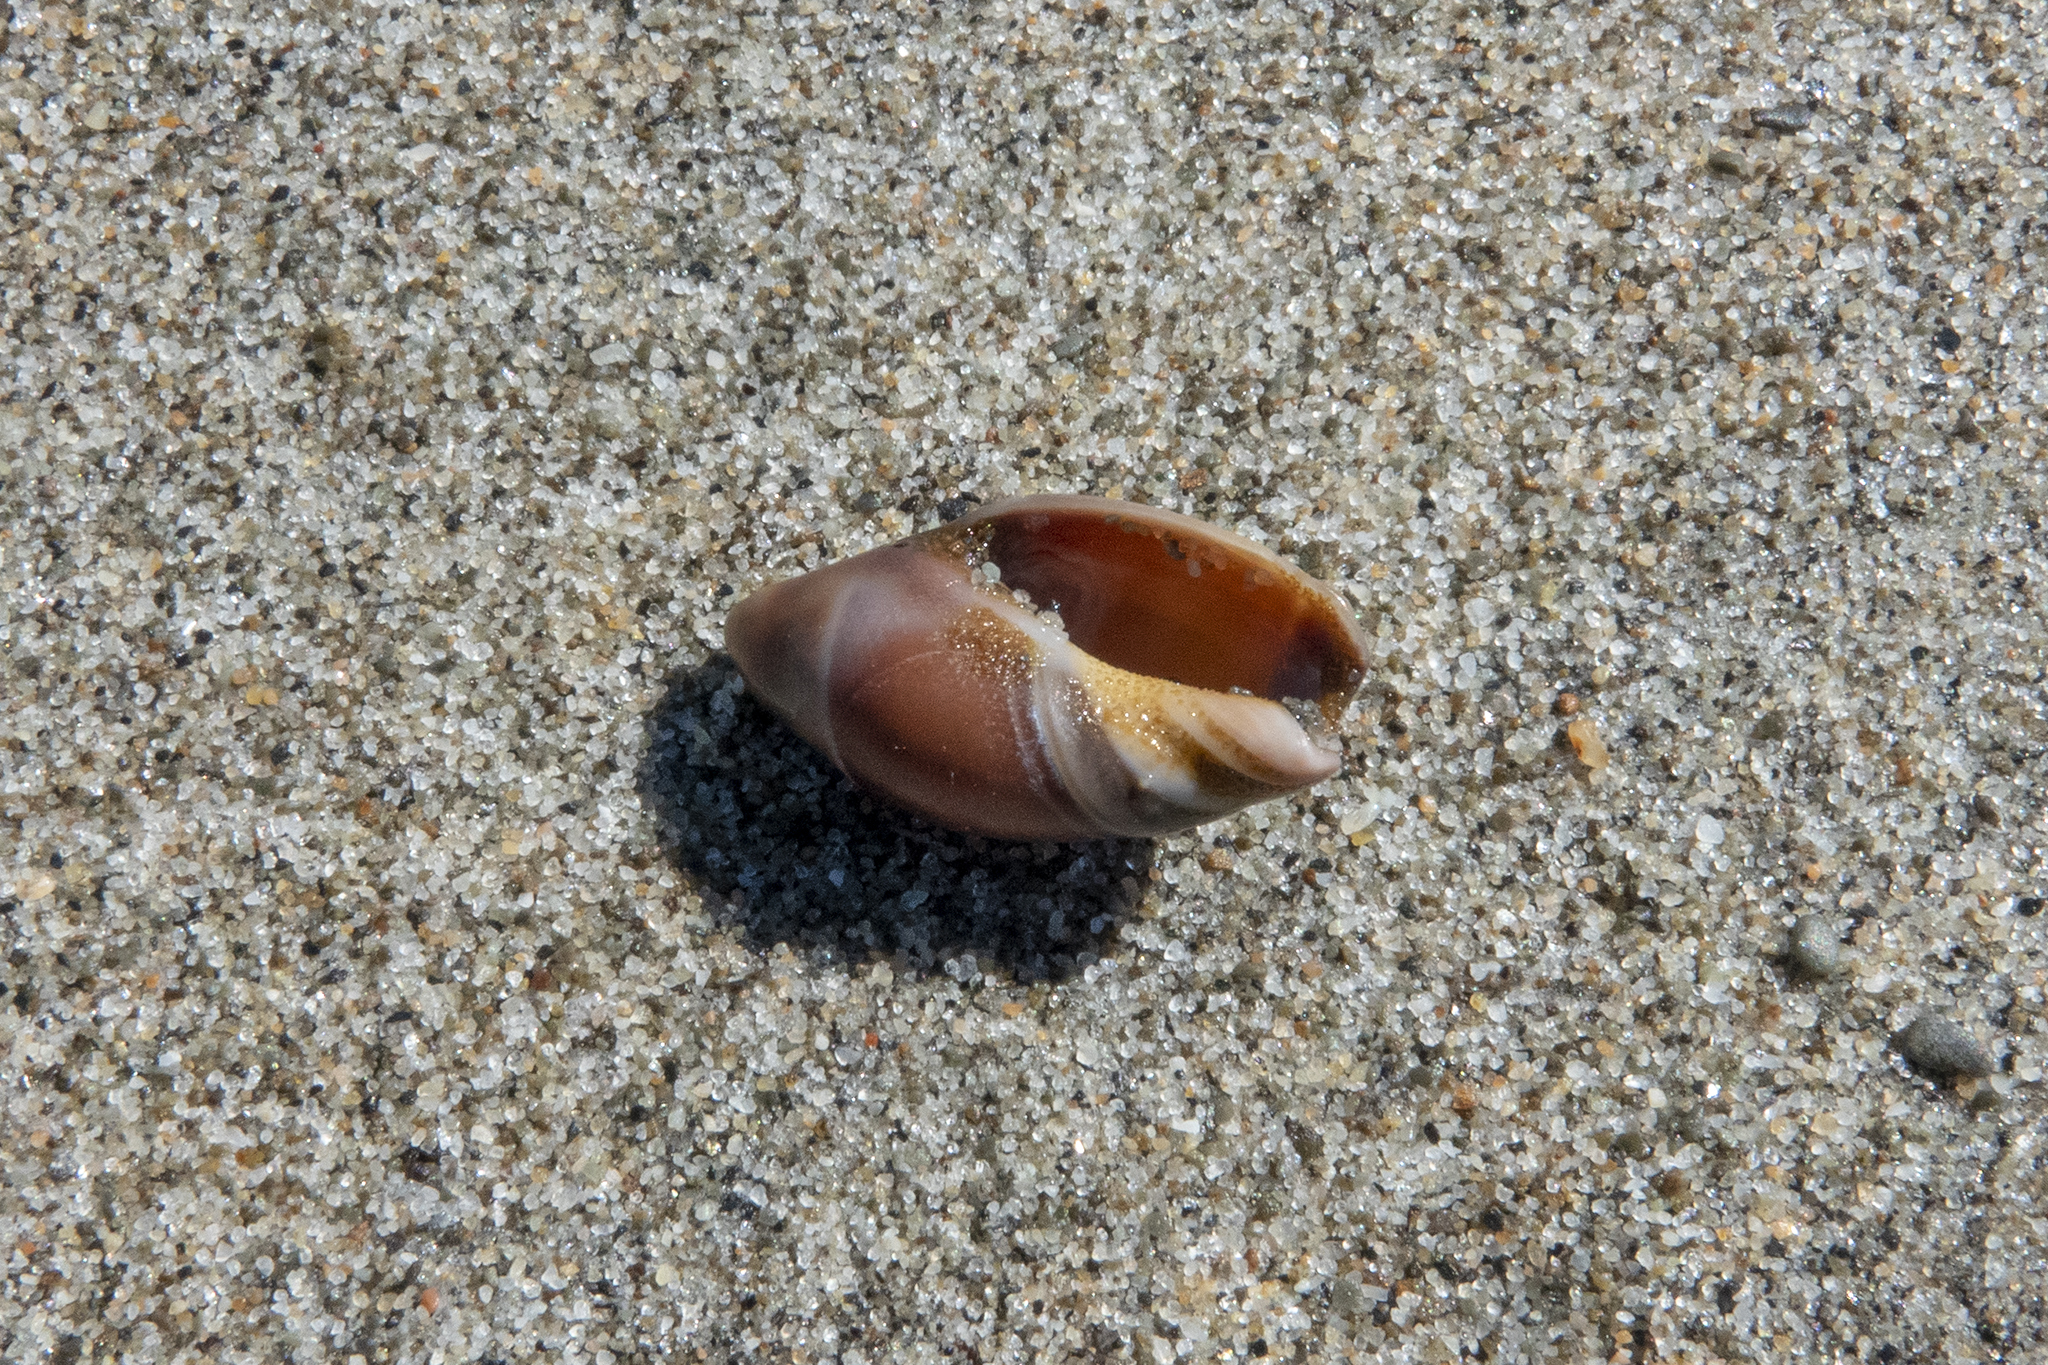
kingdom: Animalia
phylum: Mollusca
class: Gastropoda
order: Neogastropoda
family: Ancillariidae
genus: Amalda
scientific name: Amalda australis
